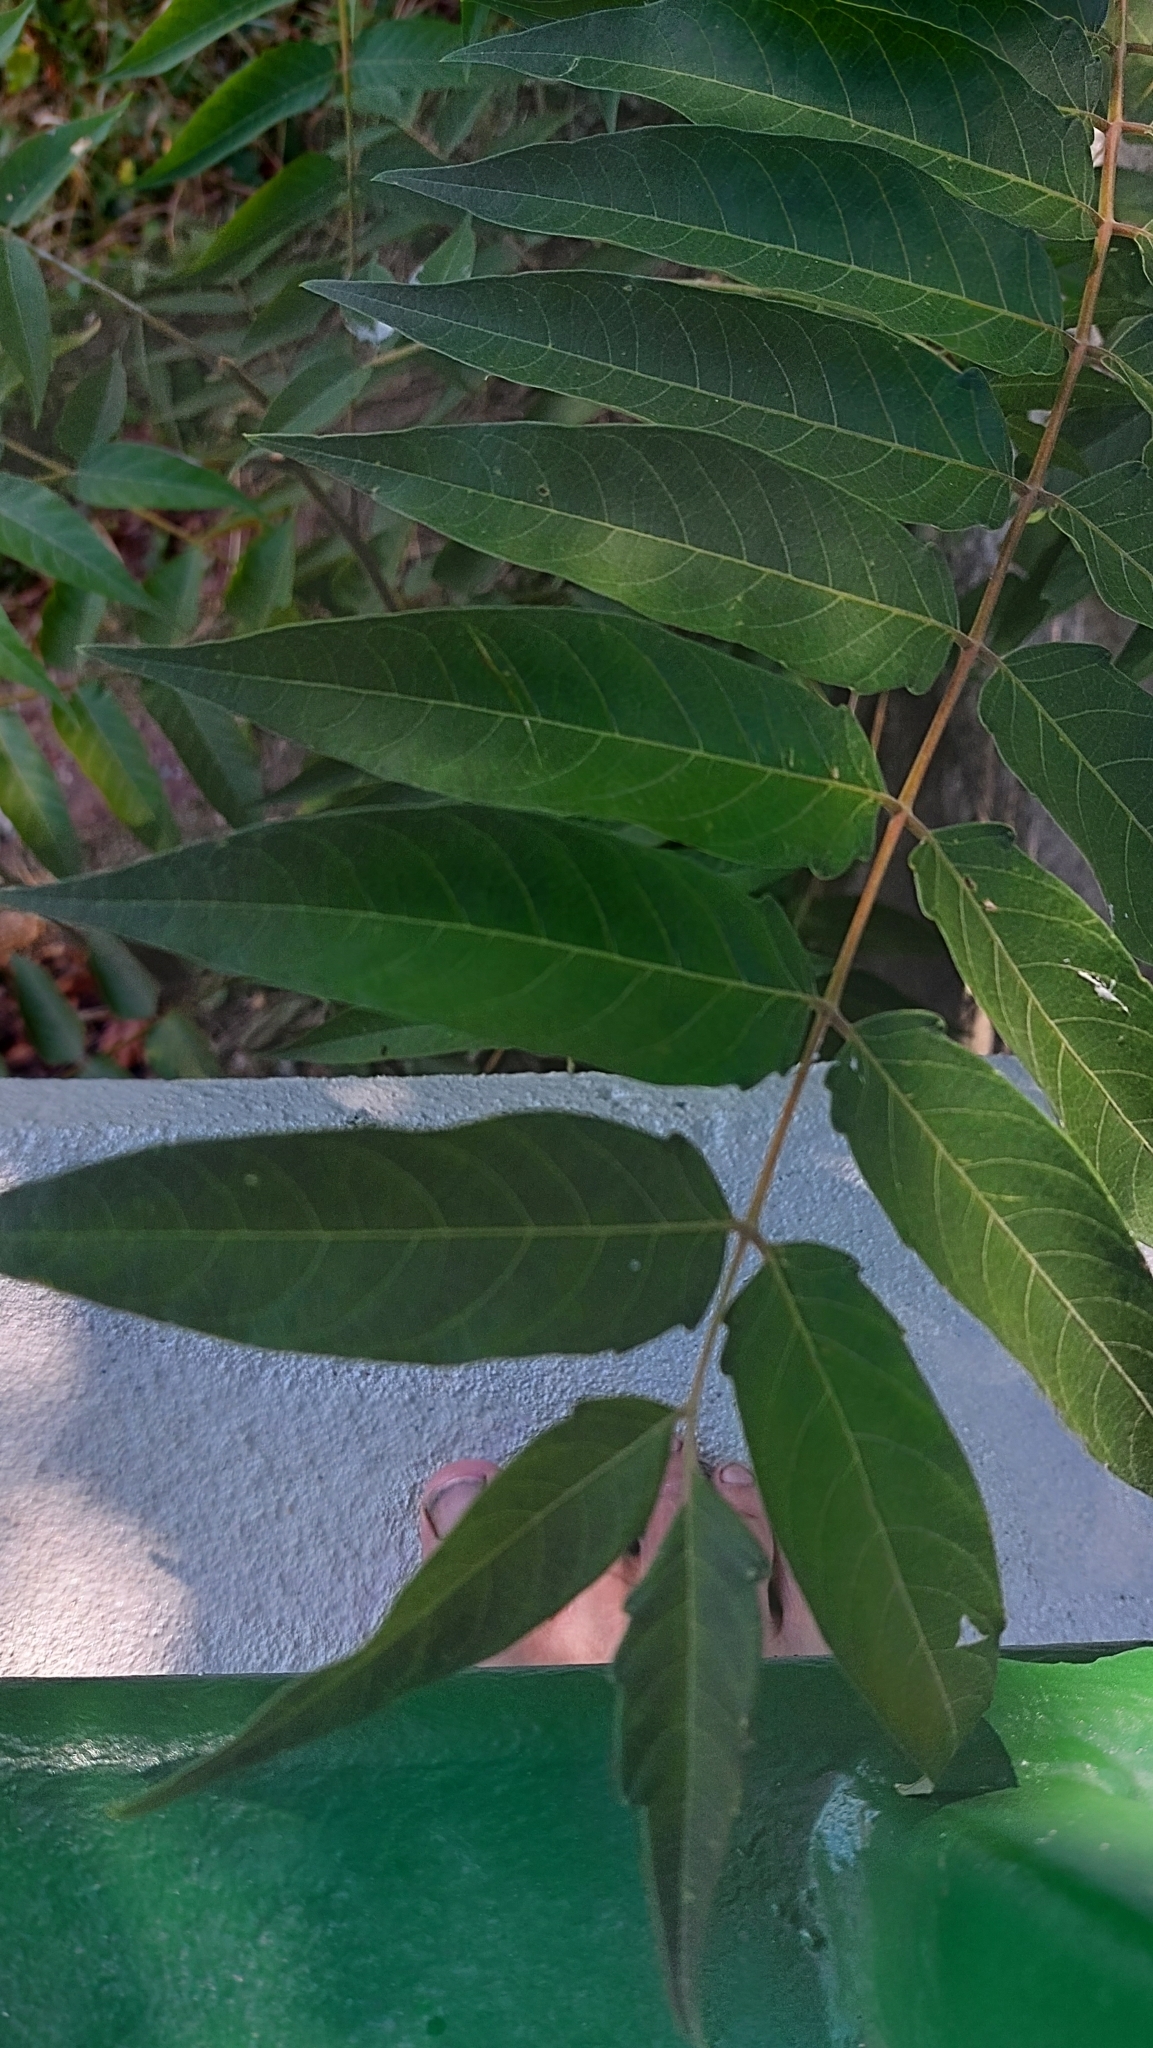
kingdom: Plantae
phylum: Tracheophyta
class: Magnoliopsida
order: Sapindales
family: Simaroubaceae
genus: Ailanthus
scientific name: Ailanthus altissima
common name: Tree-of-heaven
